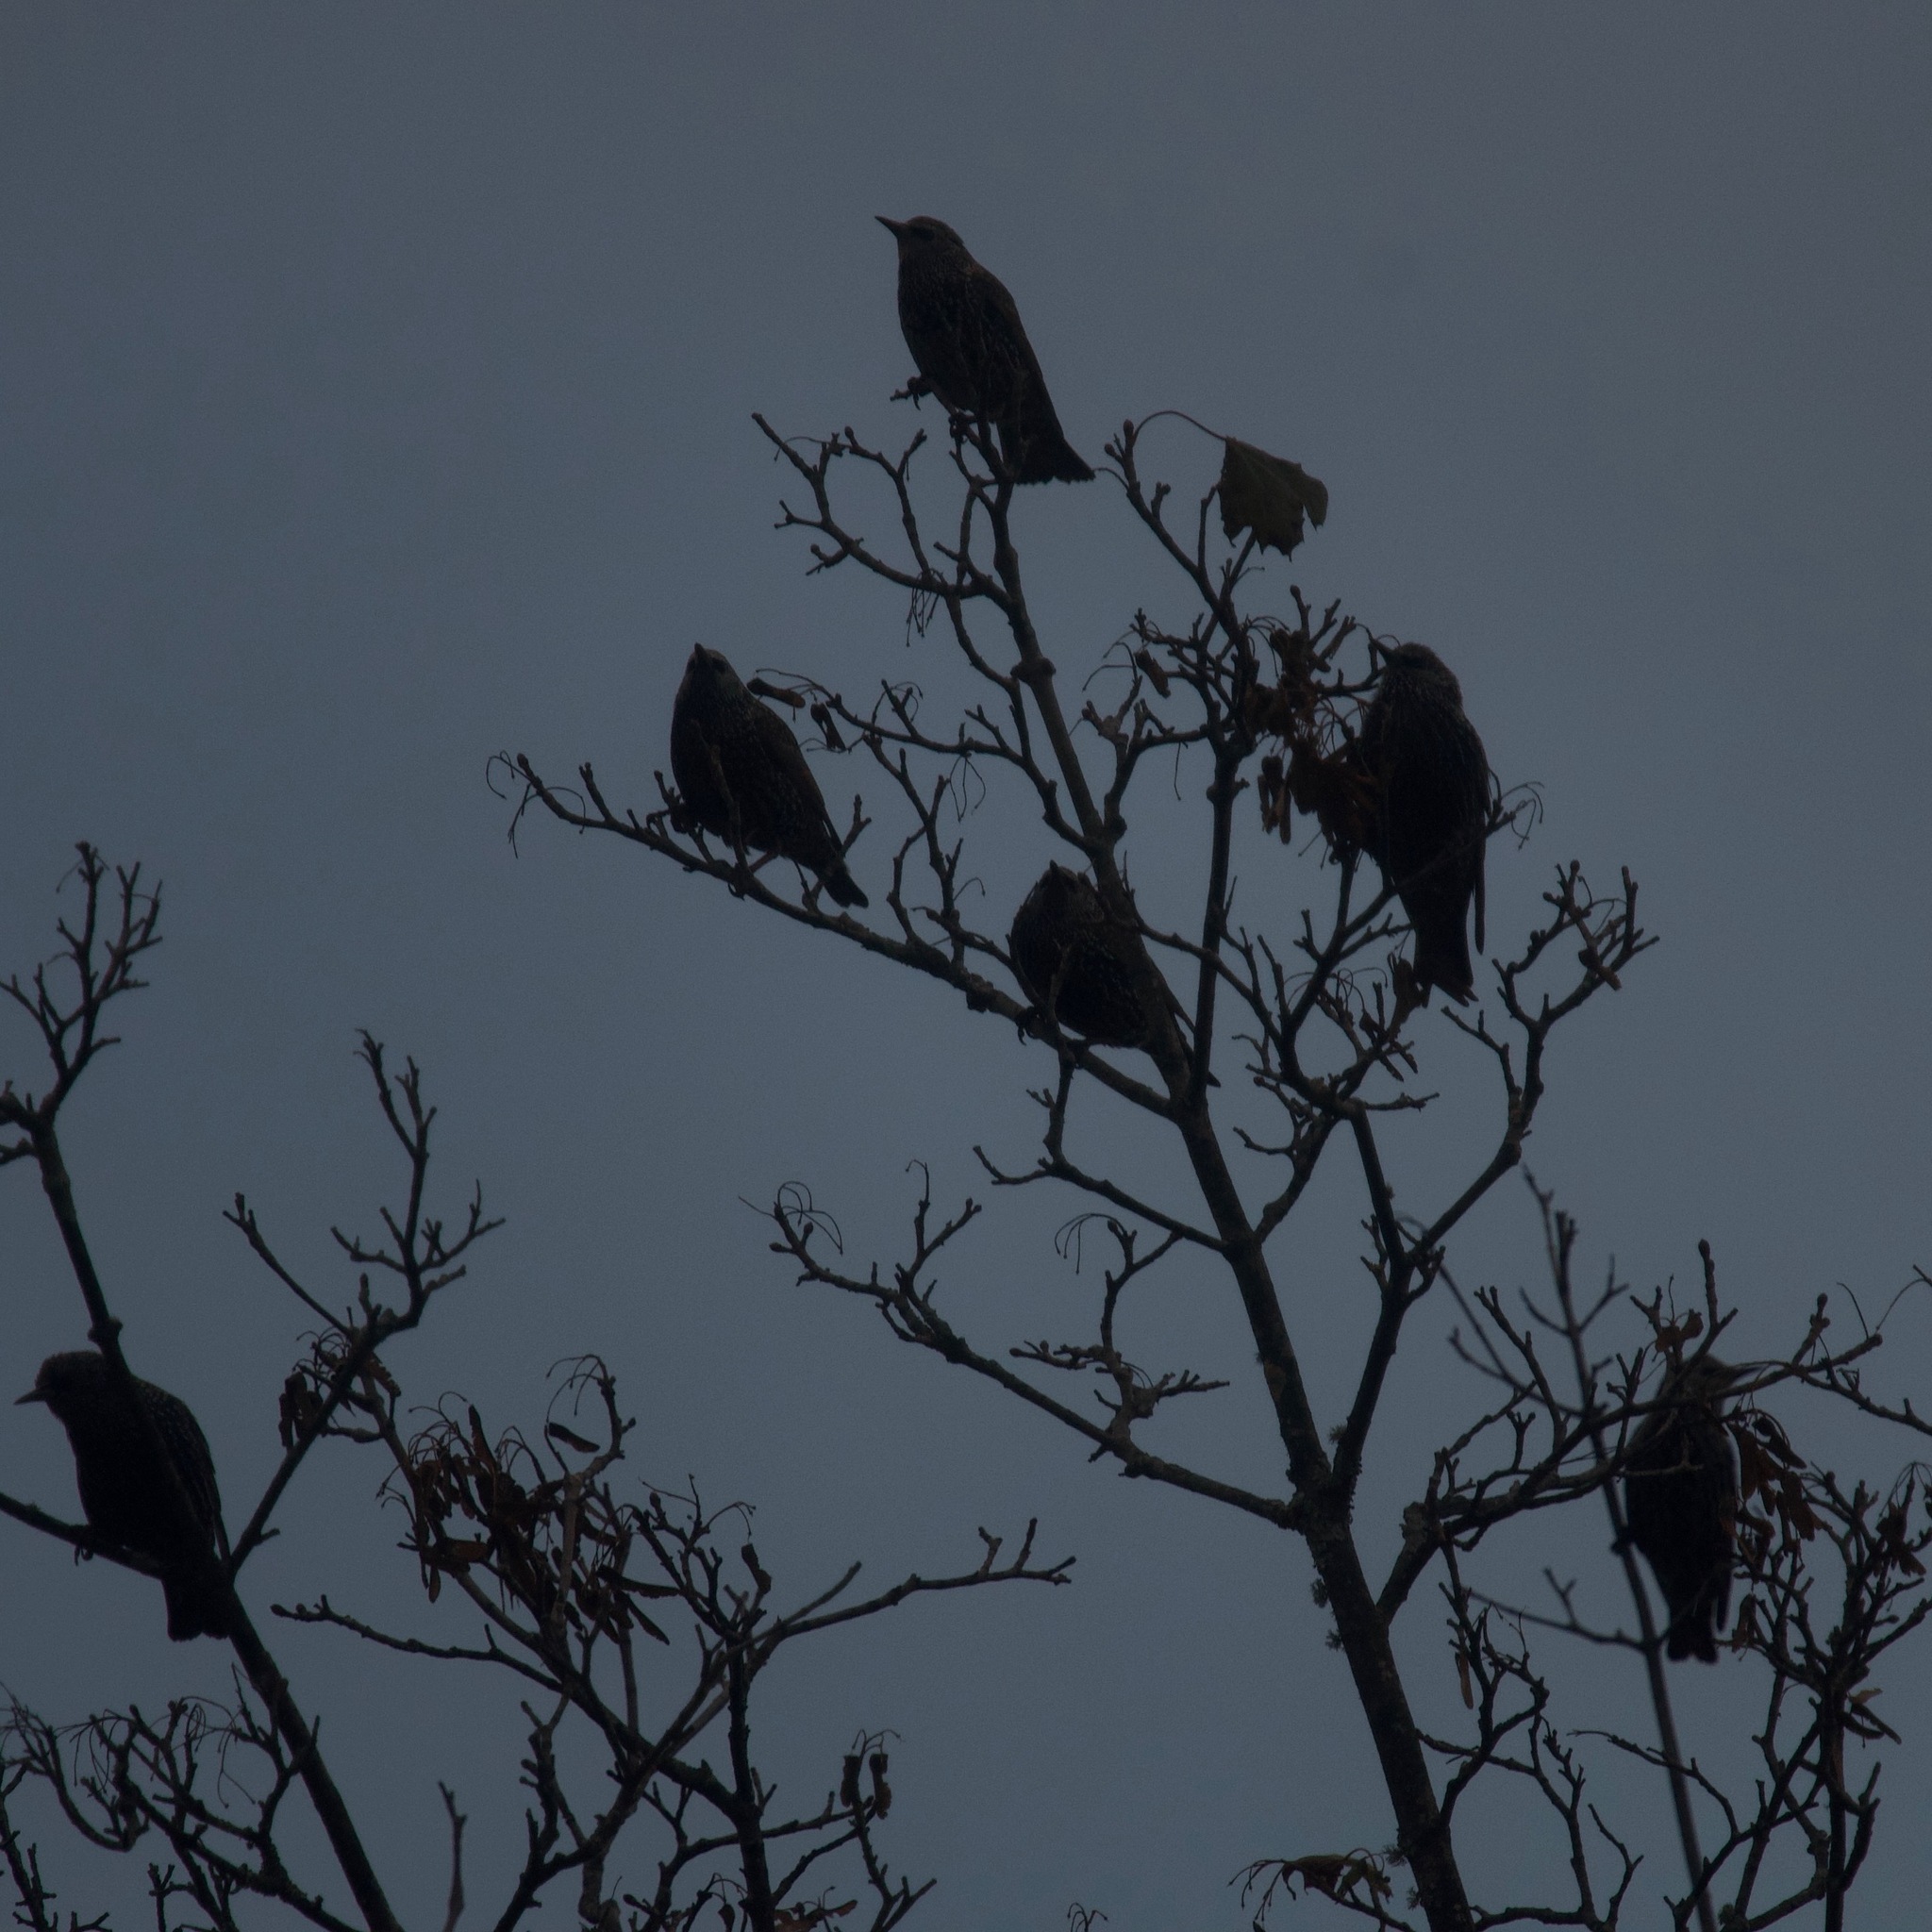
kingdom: Animalia
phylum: Chordata
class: Aves
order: Passeriformes
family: Sturnidae
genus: Sturnus
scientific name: Sturnus vulgaris
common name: Common starling
